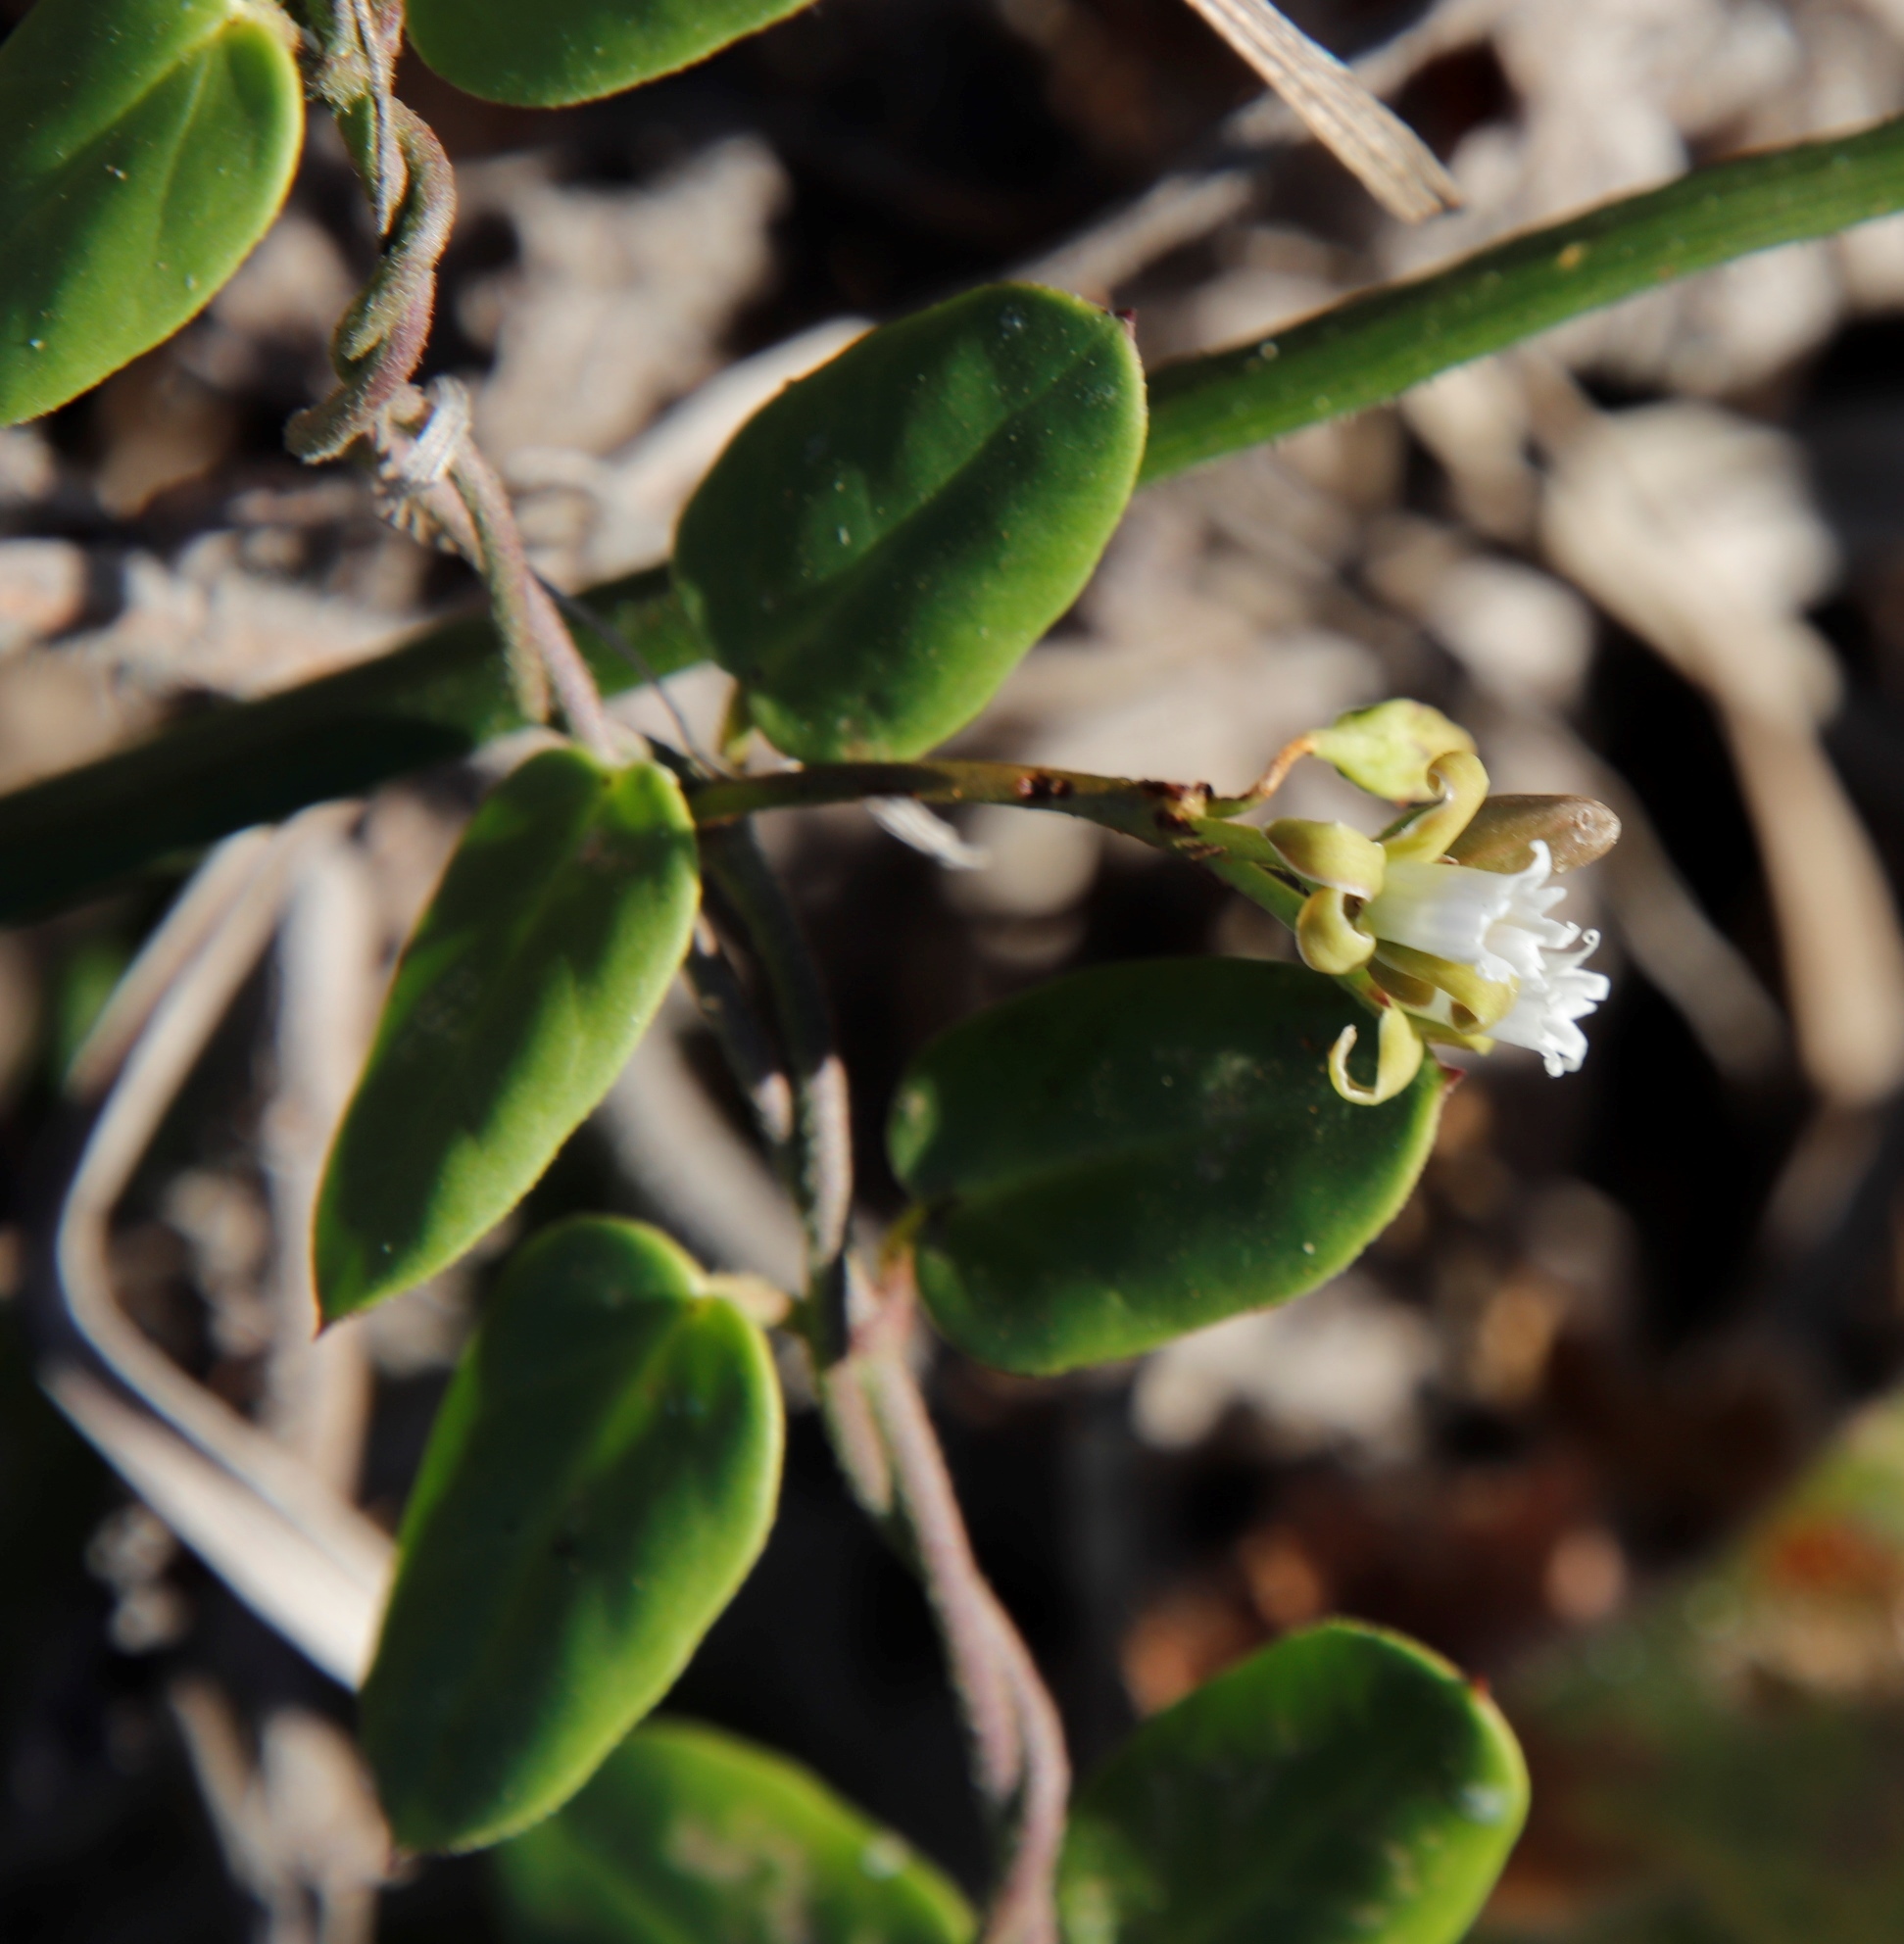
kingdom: Plantae
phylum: Tracheophyta
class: Magnoliopsida
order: Gentianales
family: Apocynaceae
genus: Cynanchum
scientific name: Cynanchum africanum
